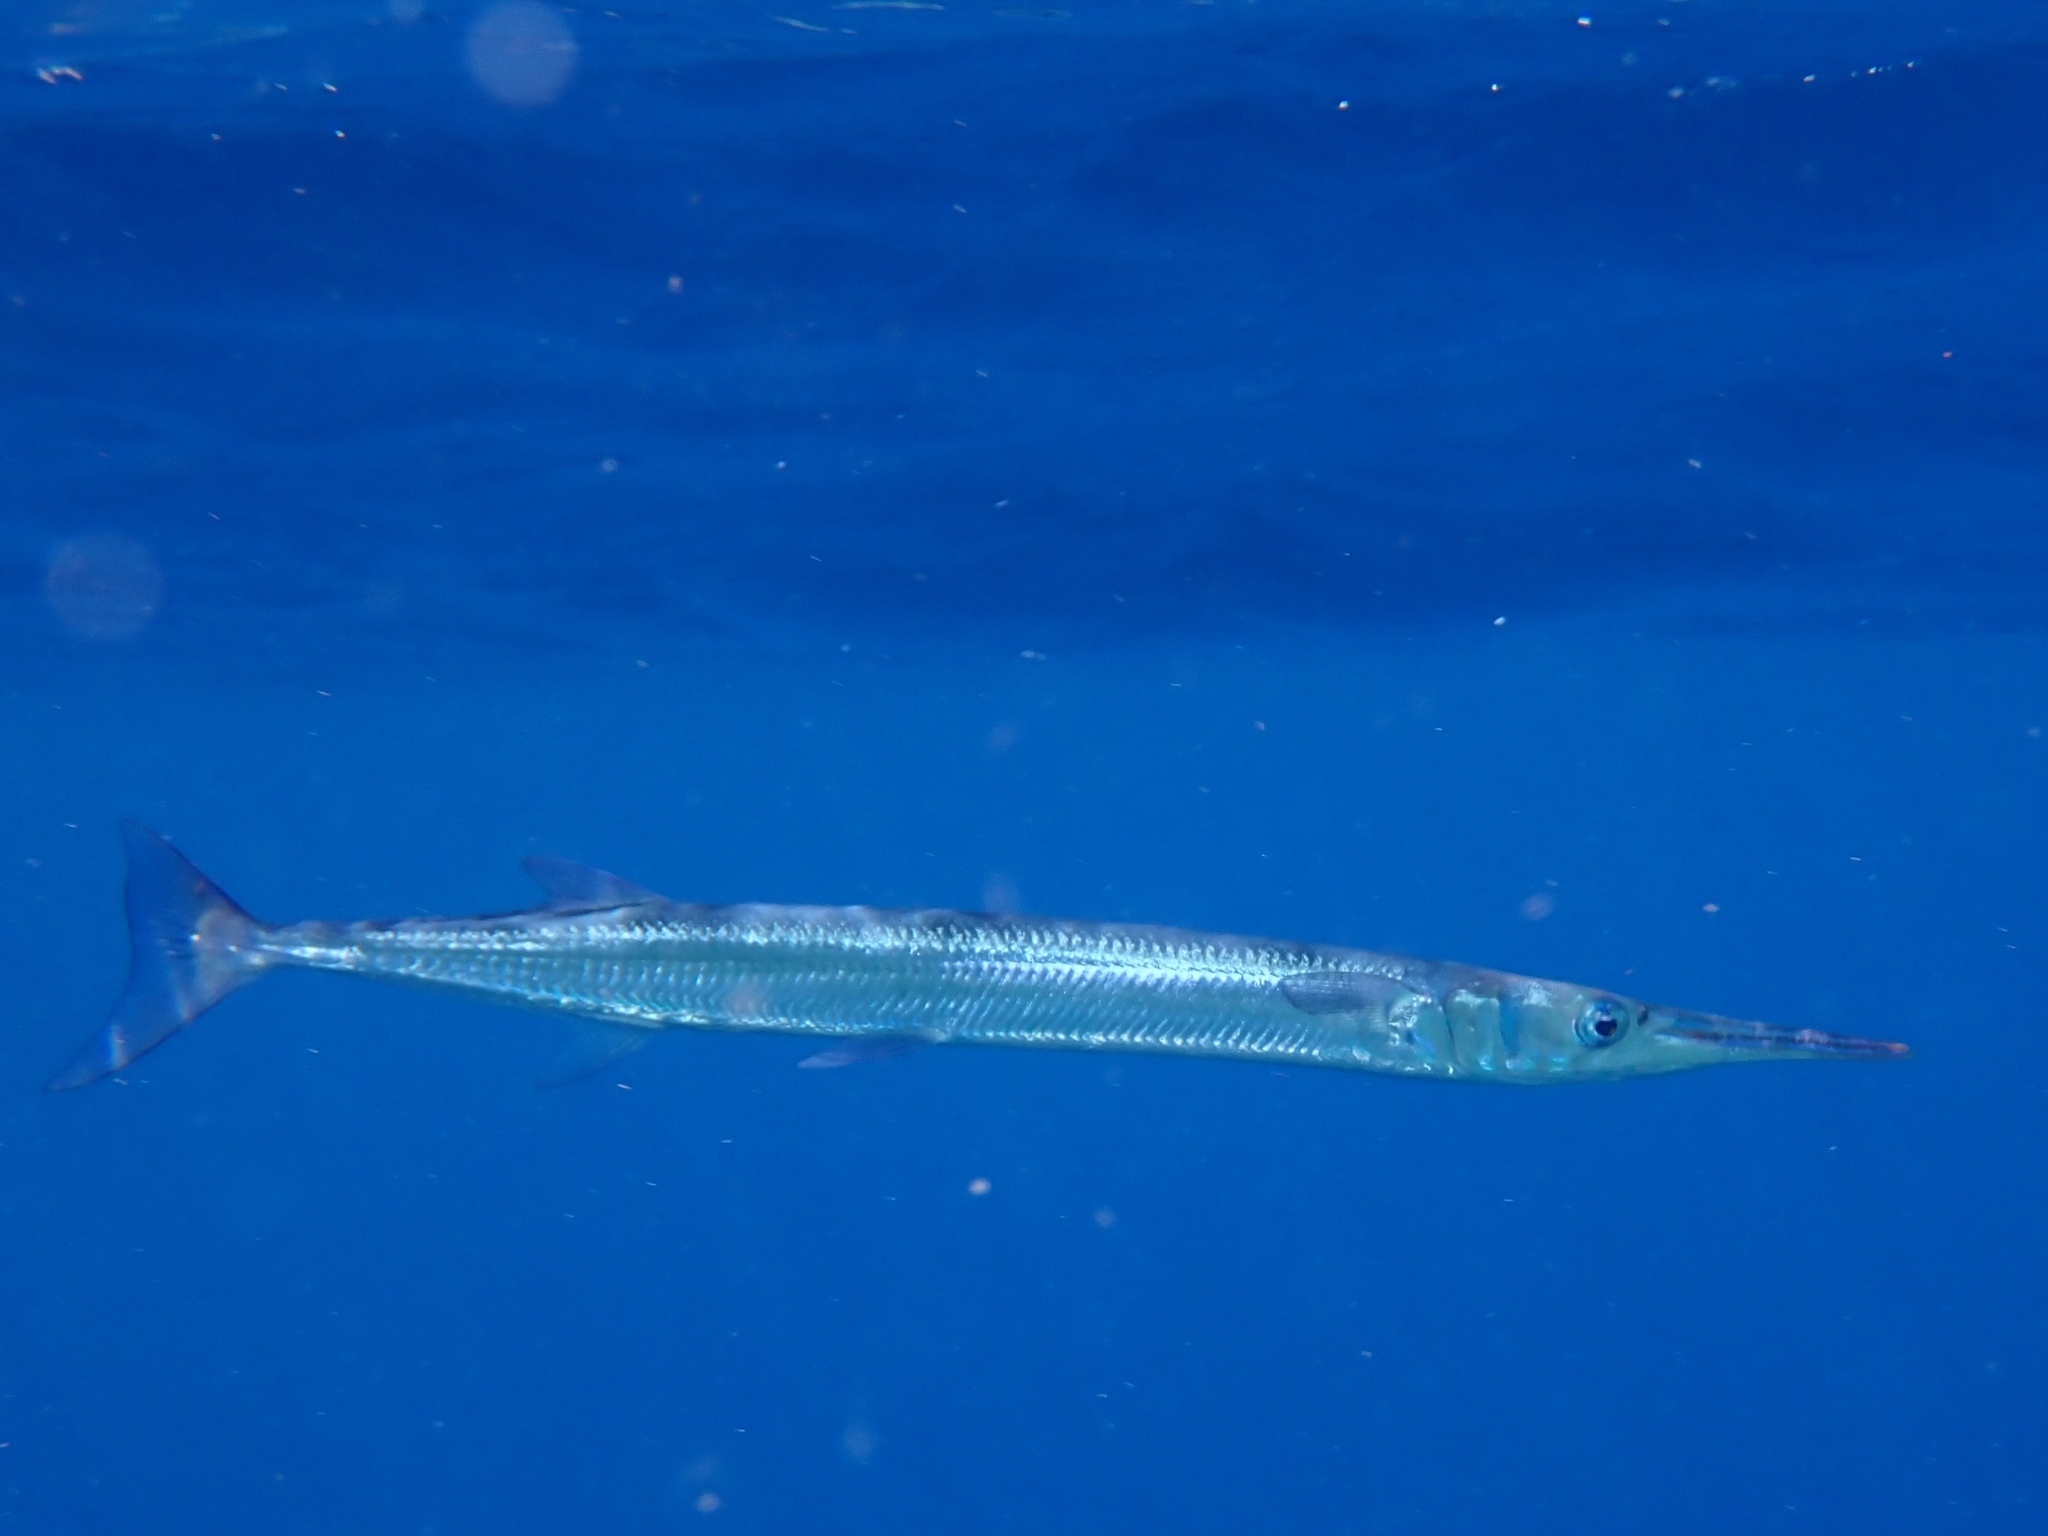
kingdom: Animalia
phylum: Chordata
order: Beloniformes
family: Belonidae
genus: Tylosurus
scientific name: Tylosurus crocodilus
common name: Houndfish
